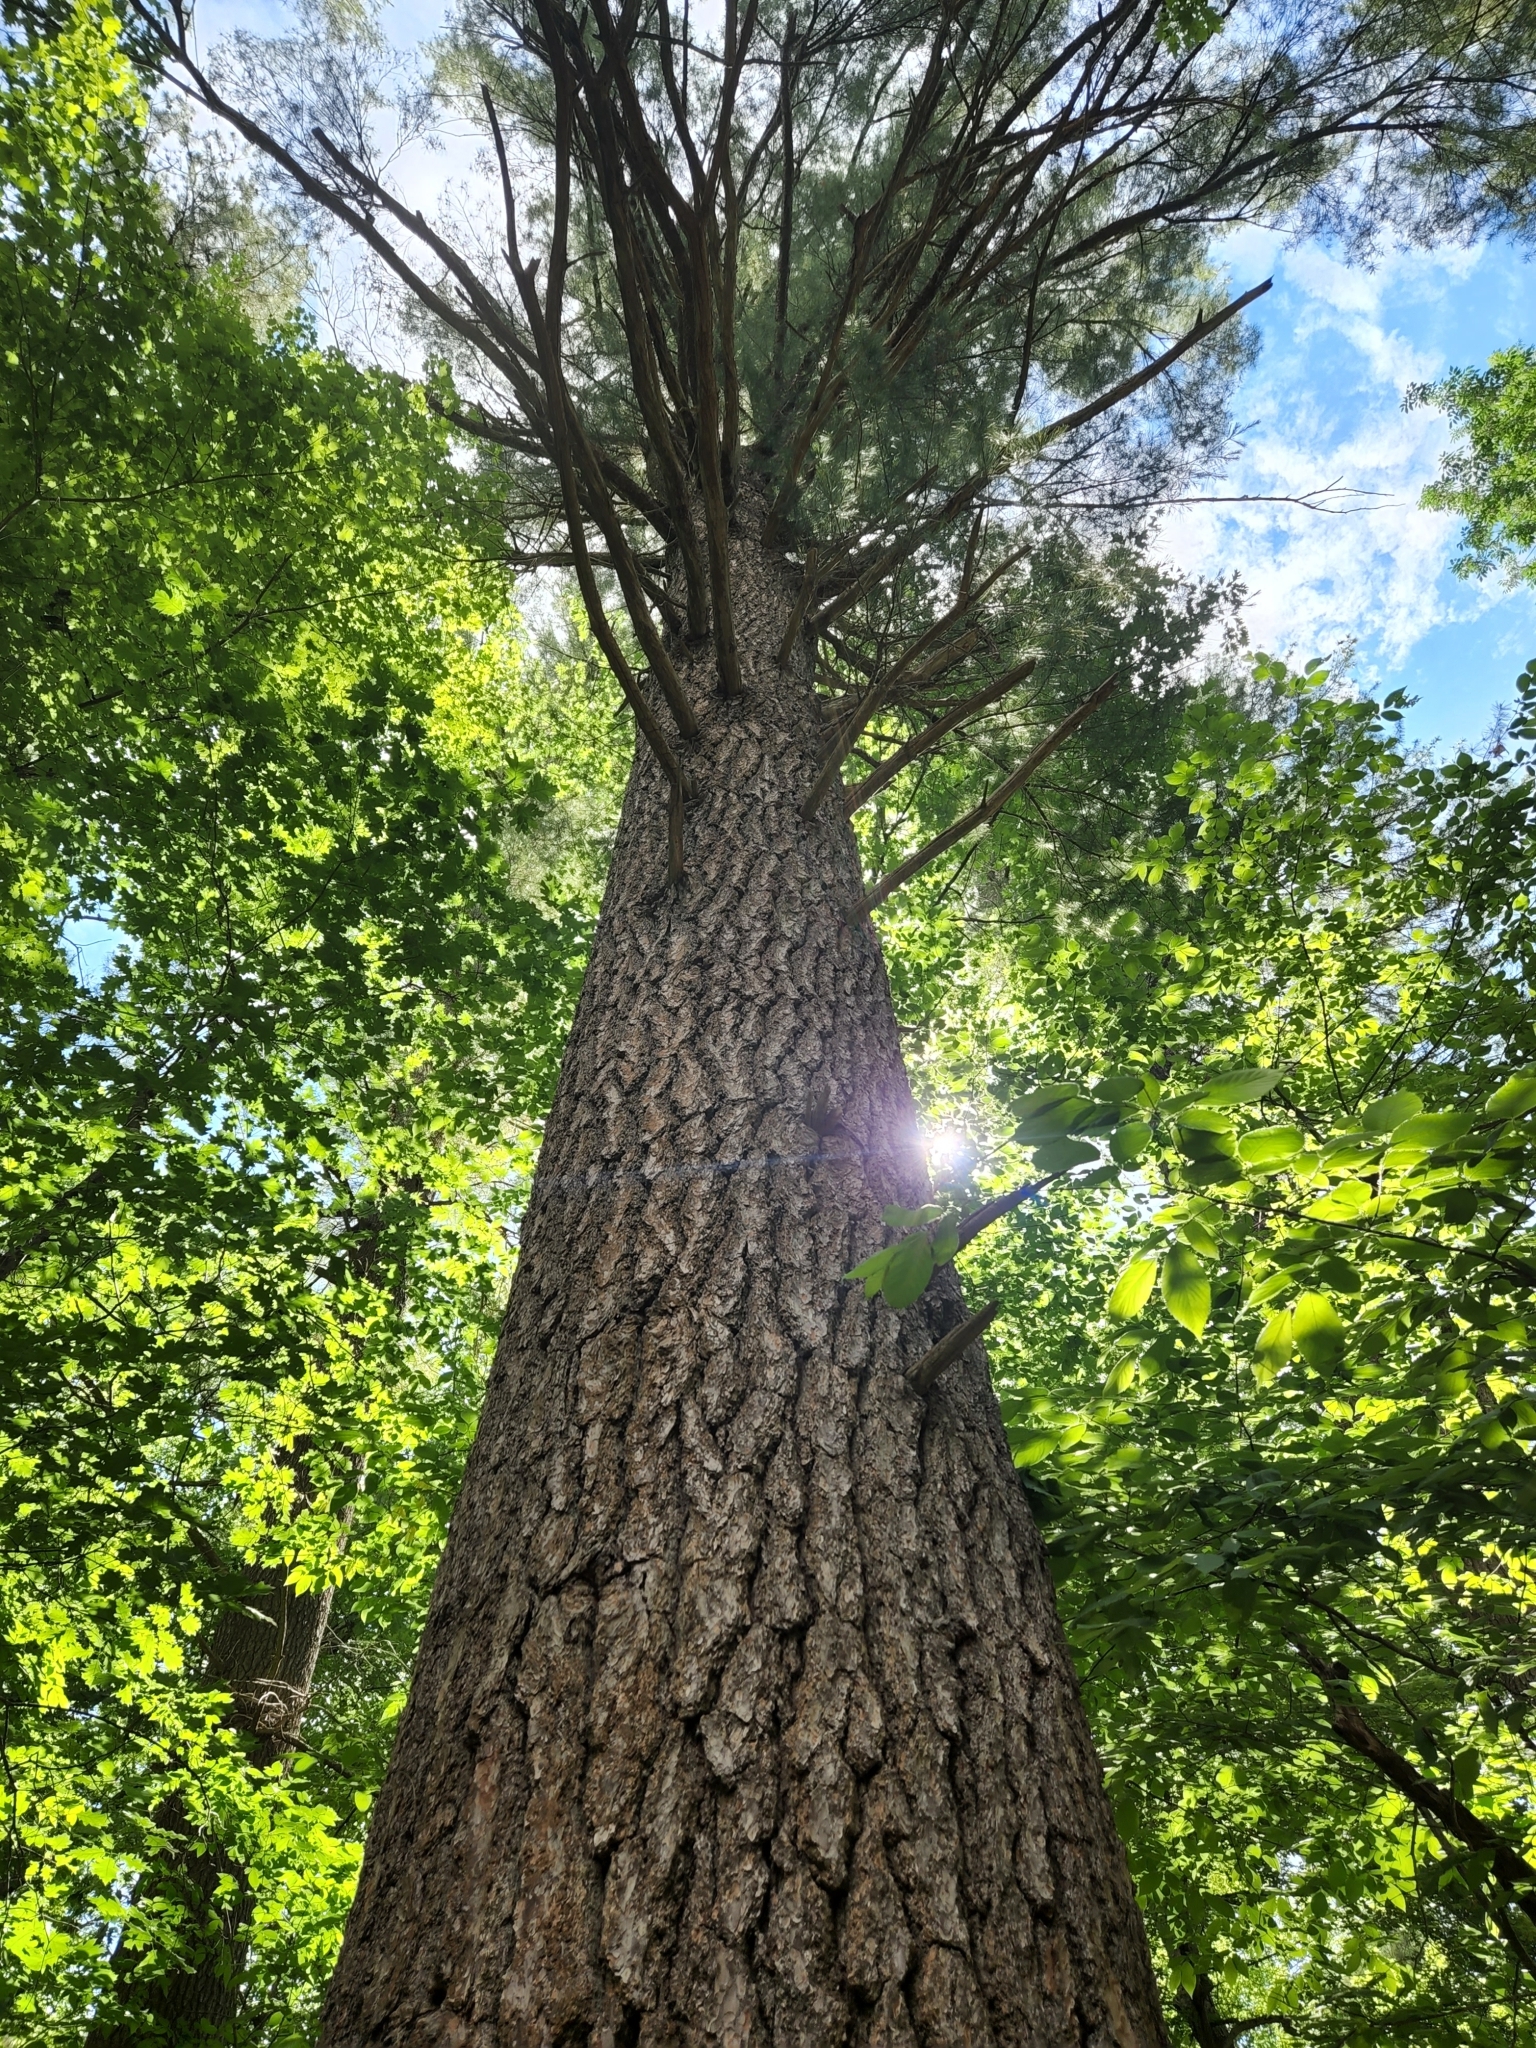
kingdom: Plantae
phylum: Tracheophyta
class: Pinopsida
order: Pinales
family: Pinaceae
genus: Pinus
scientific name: Pinus strobus
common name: Weymouth pine
